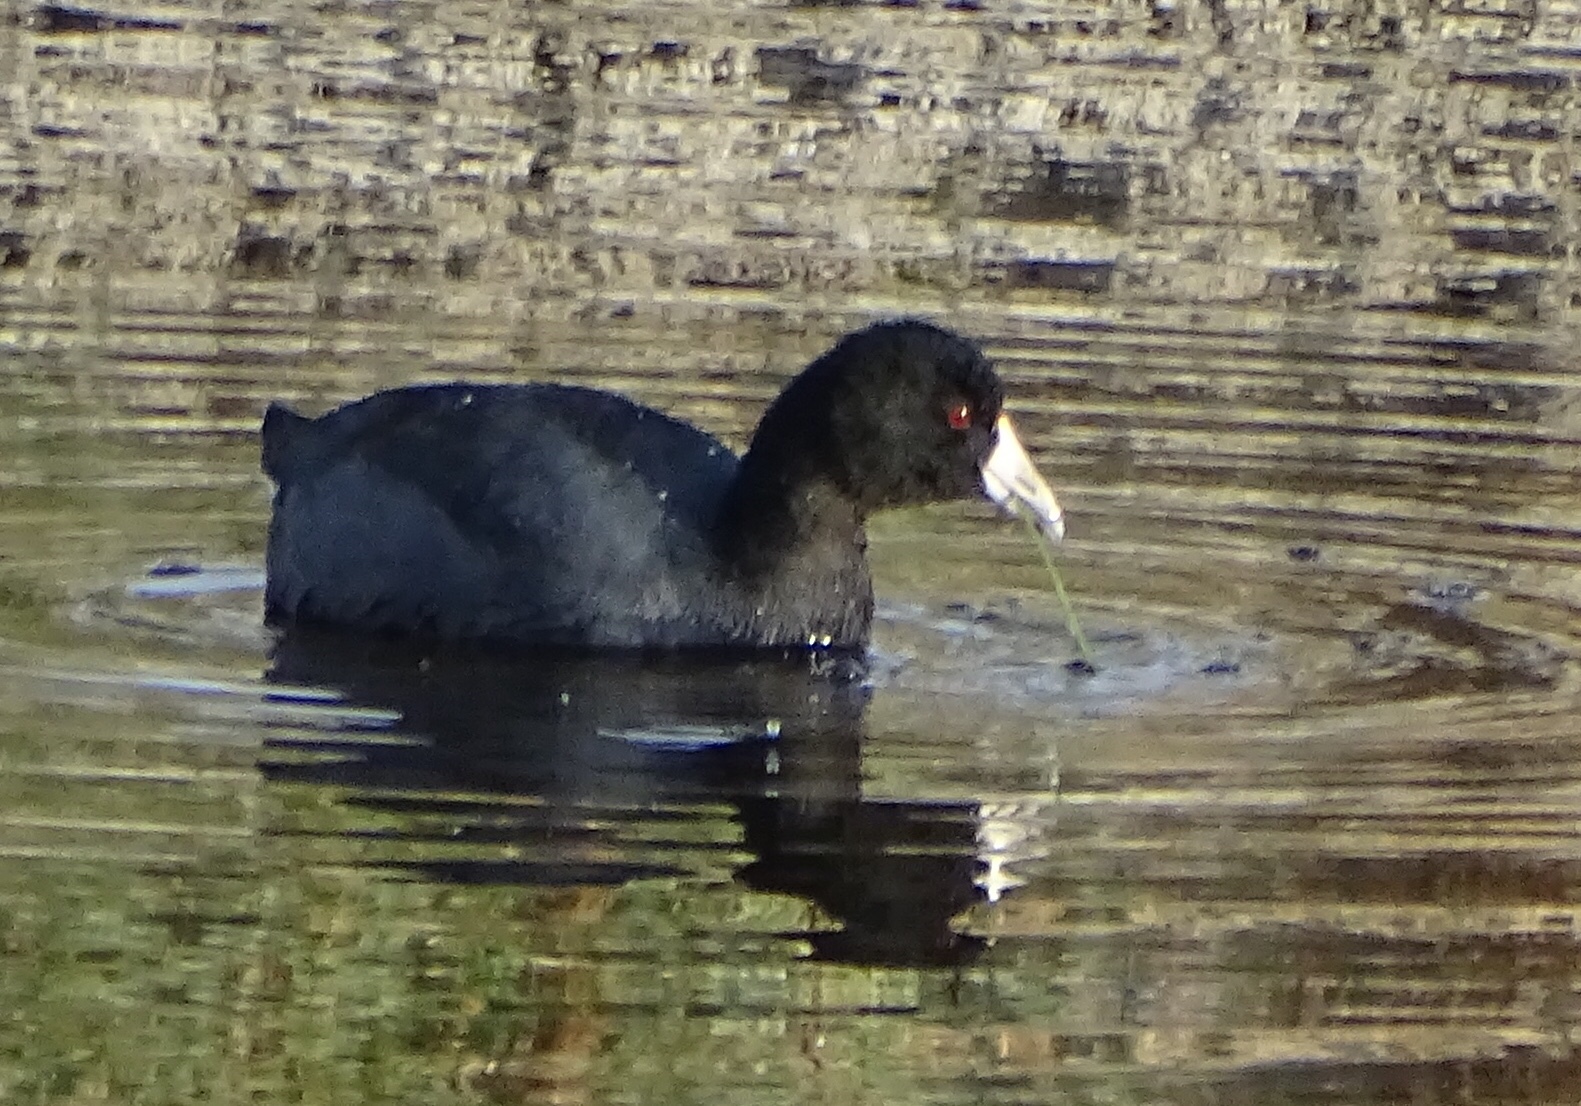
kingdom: Animalia
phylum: Chordata
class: Aves
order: Gruiformes
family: Rallidae
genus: Fulica
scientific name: Fulica americana
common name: American coot
